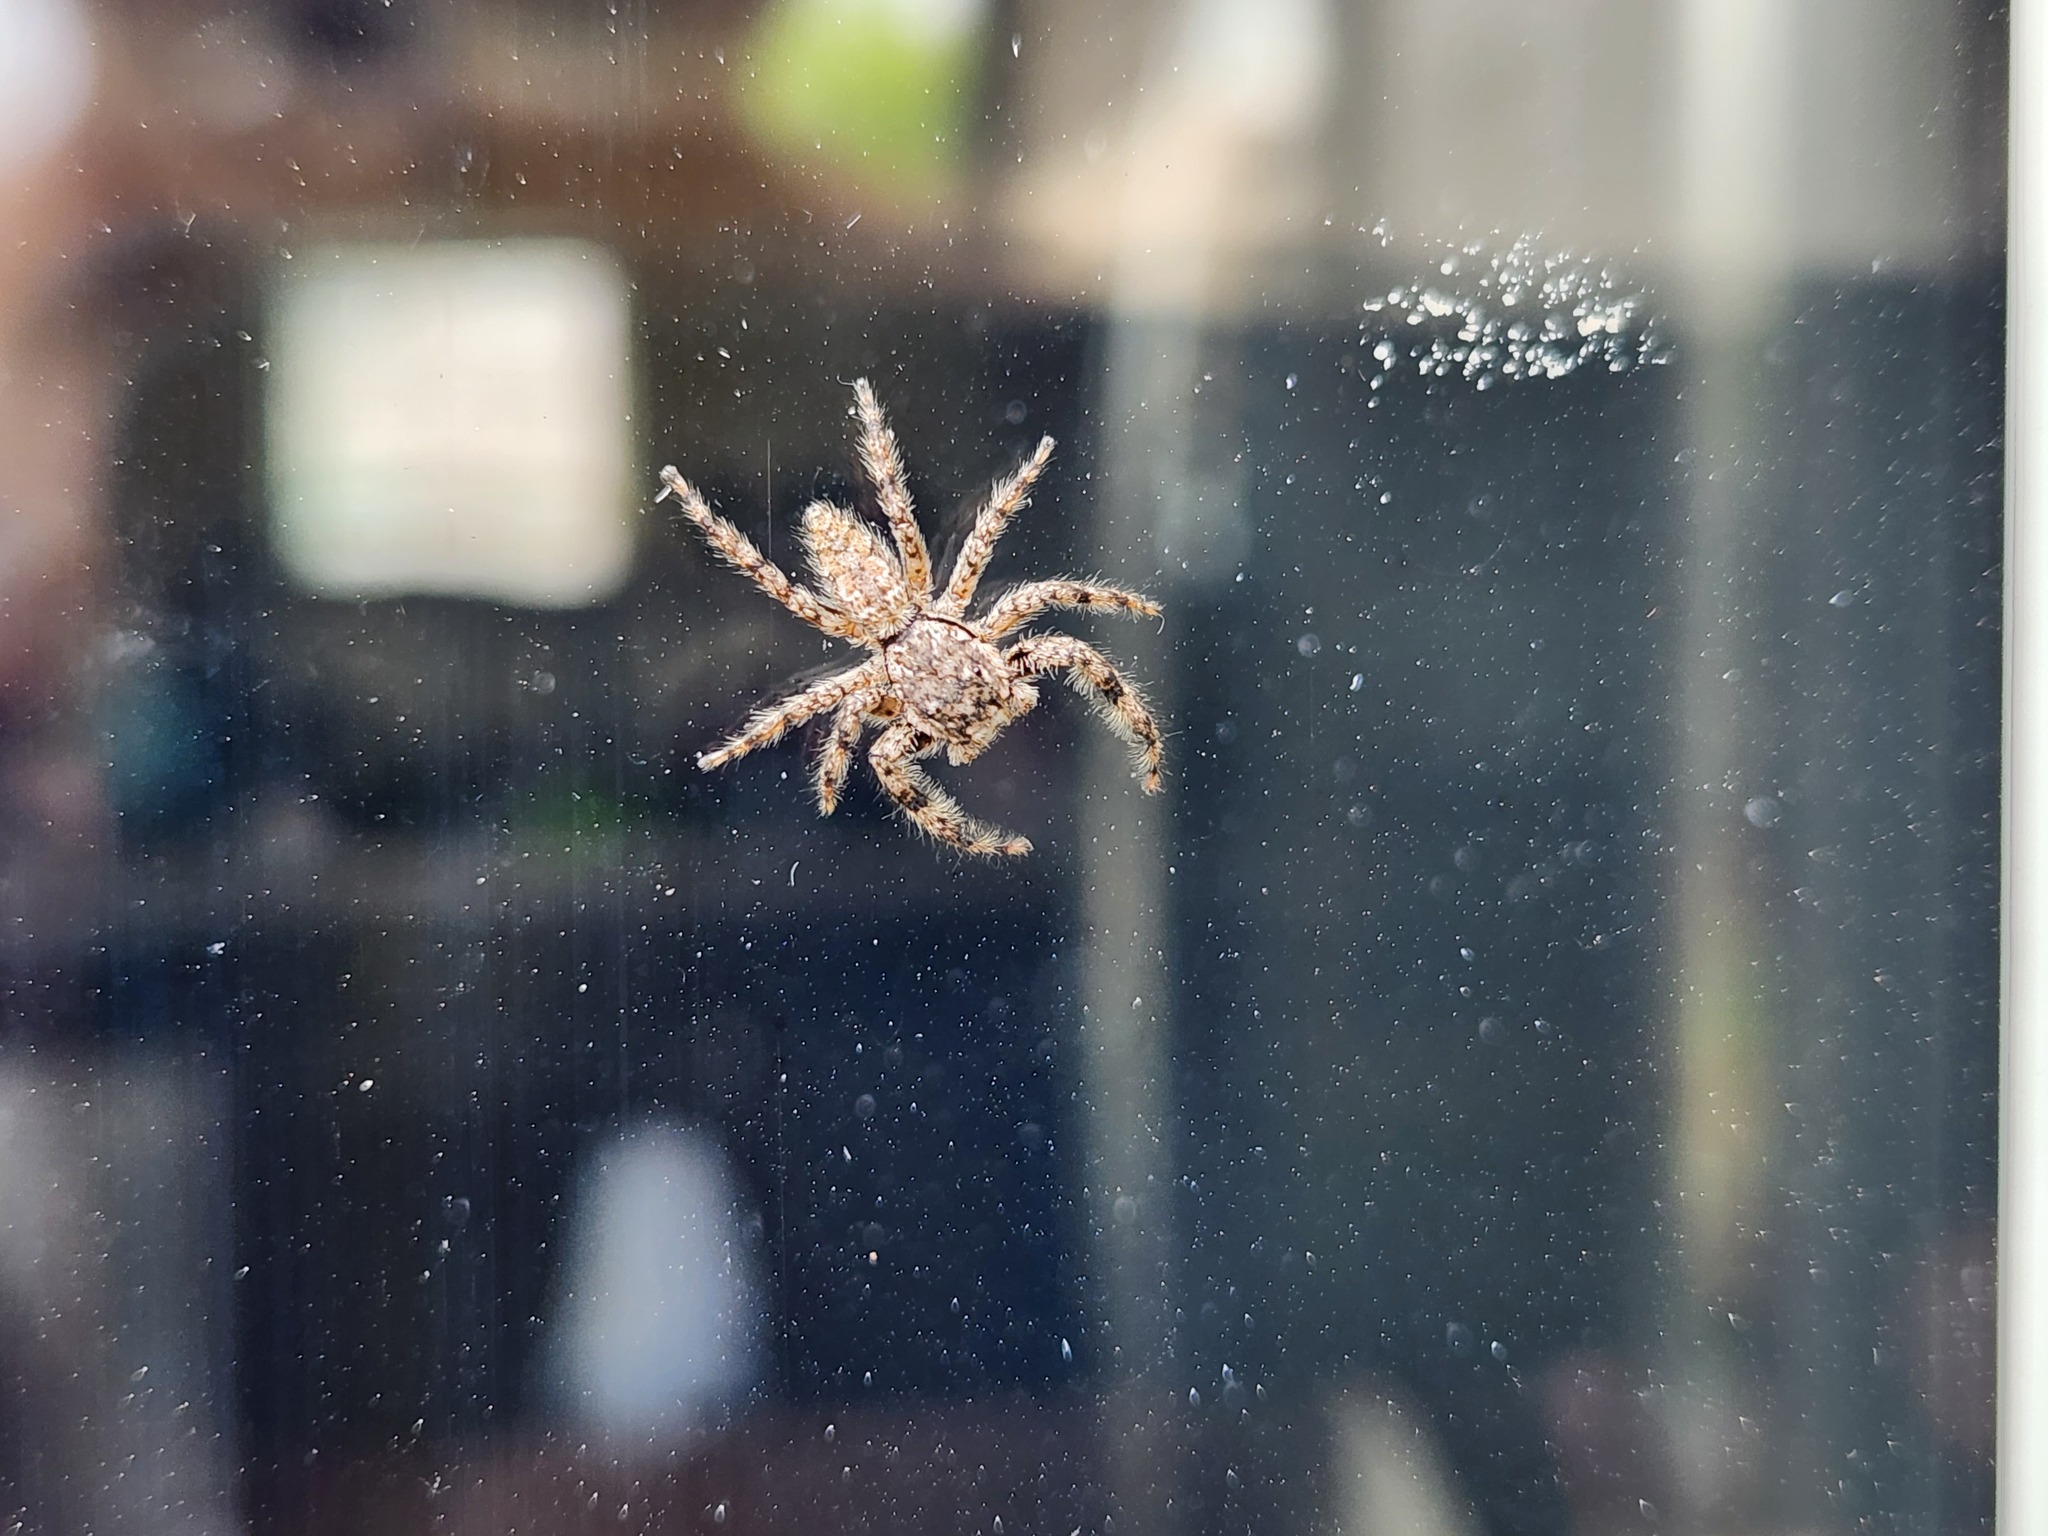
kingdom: Animalia
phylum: Arthropoda
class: Arachnida
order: Araneae
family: Salticidae
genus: Platycryptus
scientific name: Platycryptus undatus
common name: Tan jumping spider
